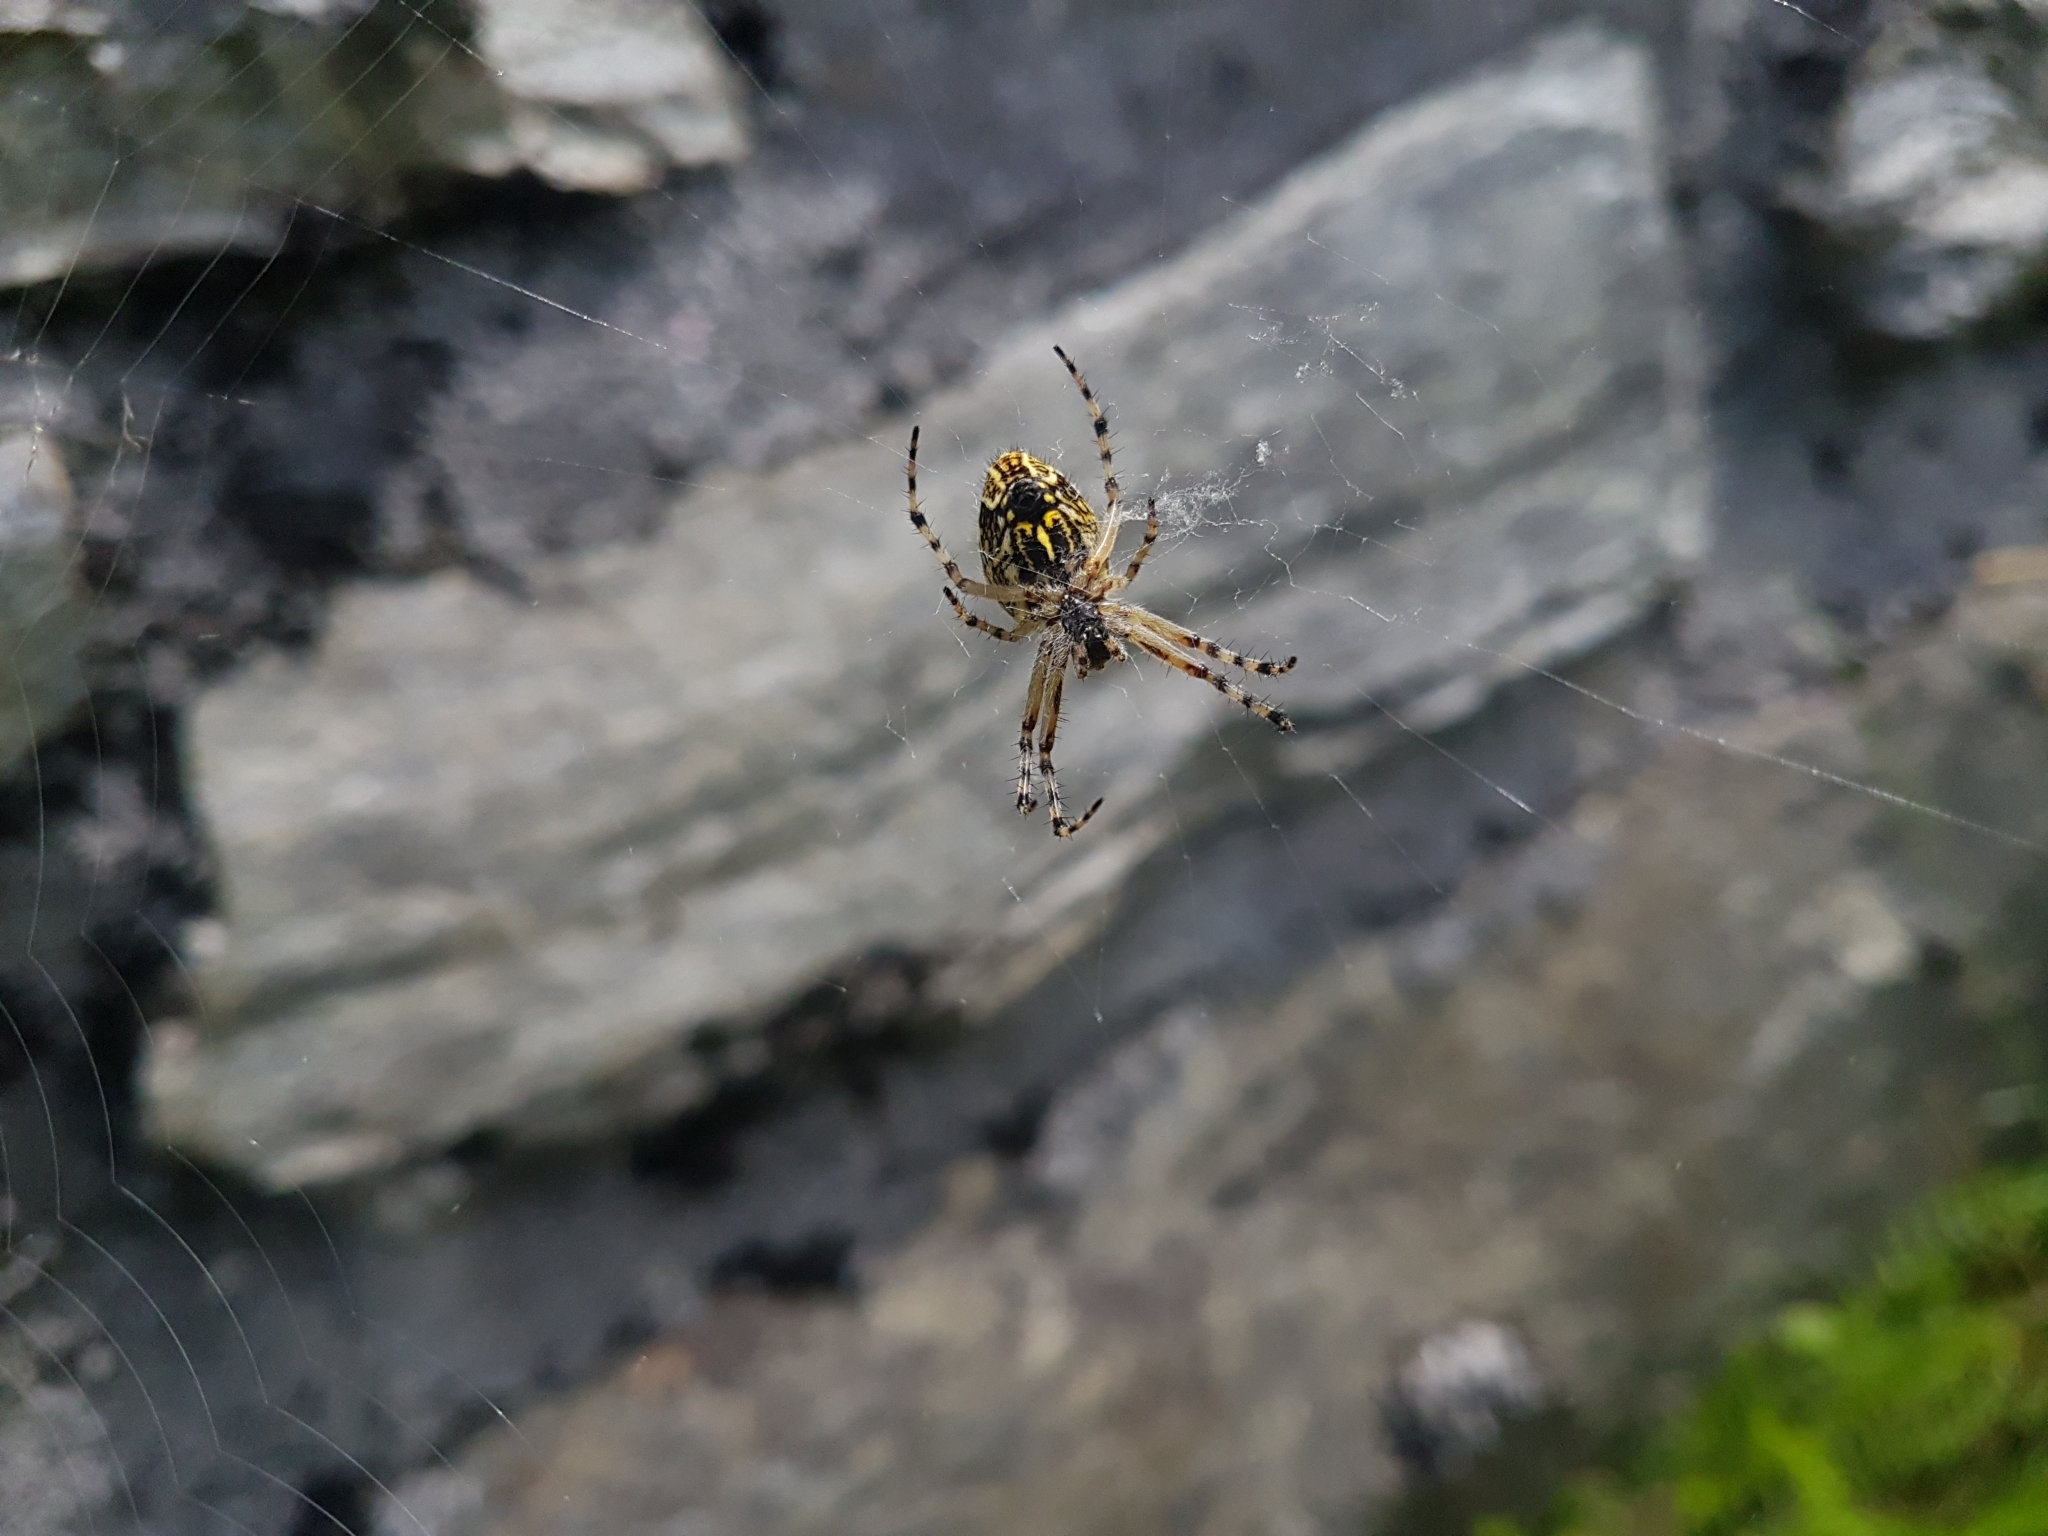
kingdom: Animalia
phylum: Arthropoda
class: Arachnida
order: Araneae
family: Araneidae
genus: Aculepeira
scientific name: Aculepeira ceropegia
